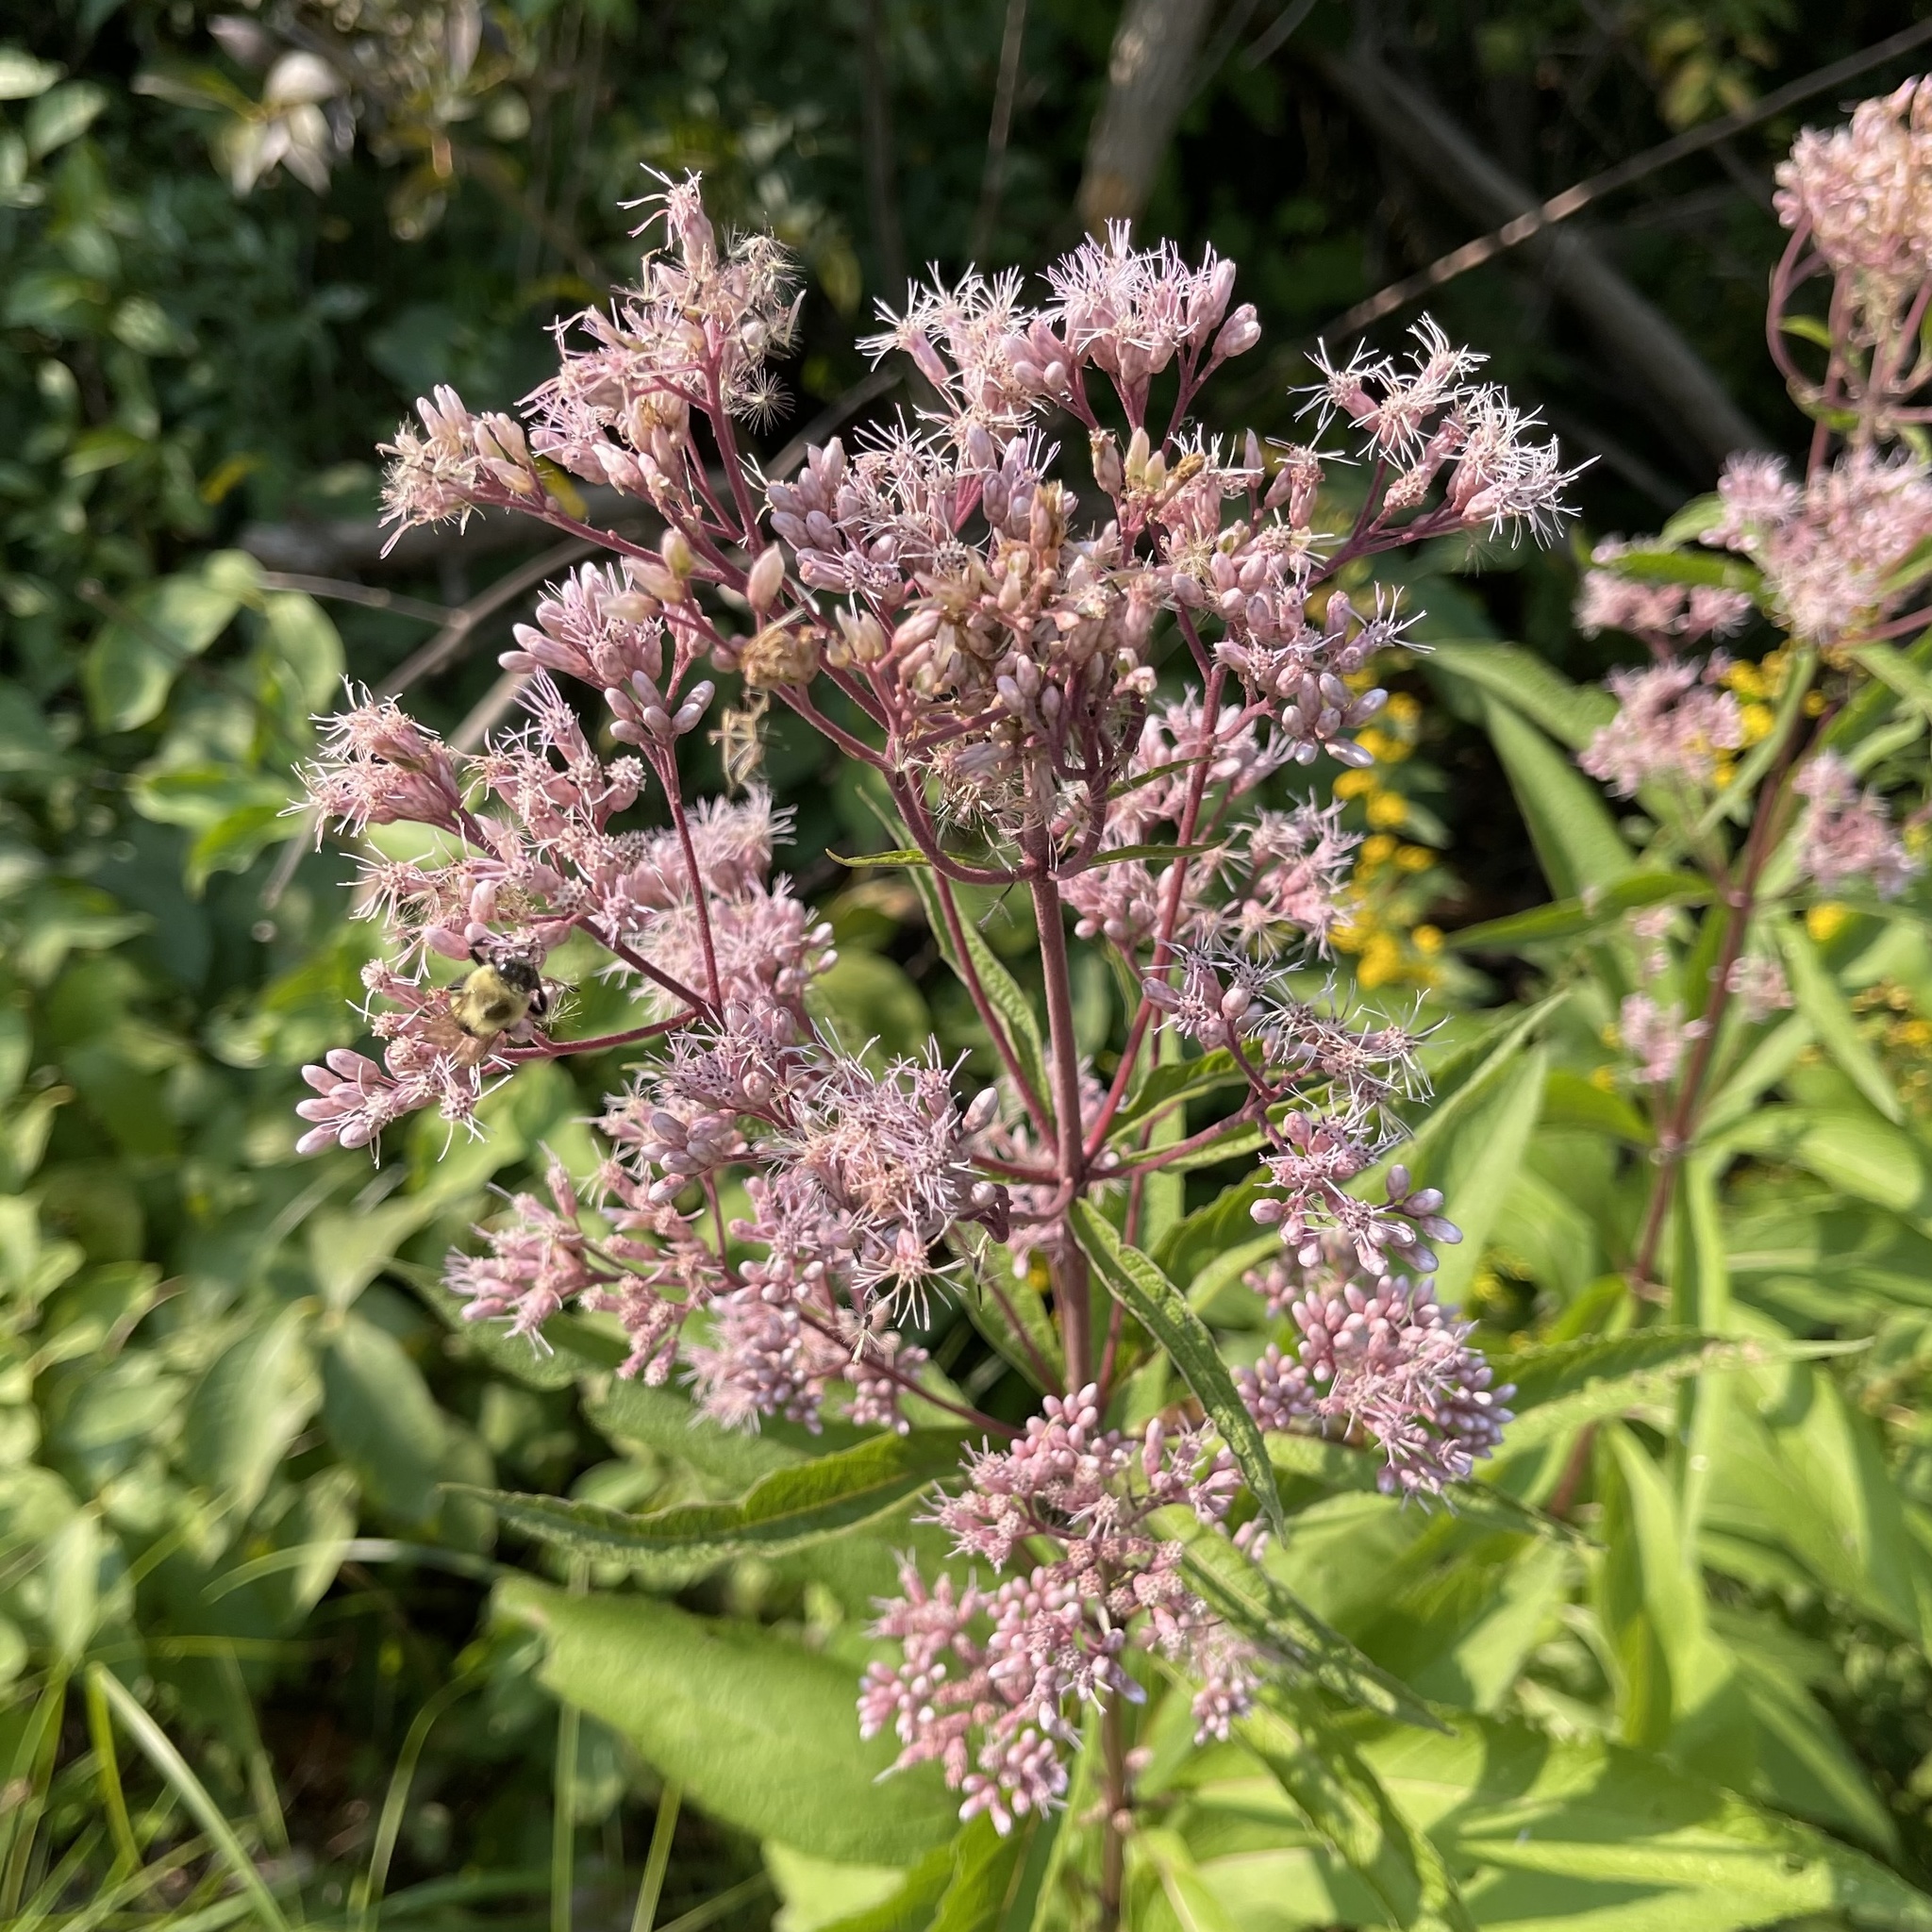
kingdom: Plantae
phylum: Tracheophyta
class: Magnoliopsida
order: Asterales
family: Asteraceae
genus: Eutrochium
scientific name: Eutrochium maculatum
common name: Spotted joe pye weed
